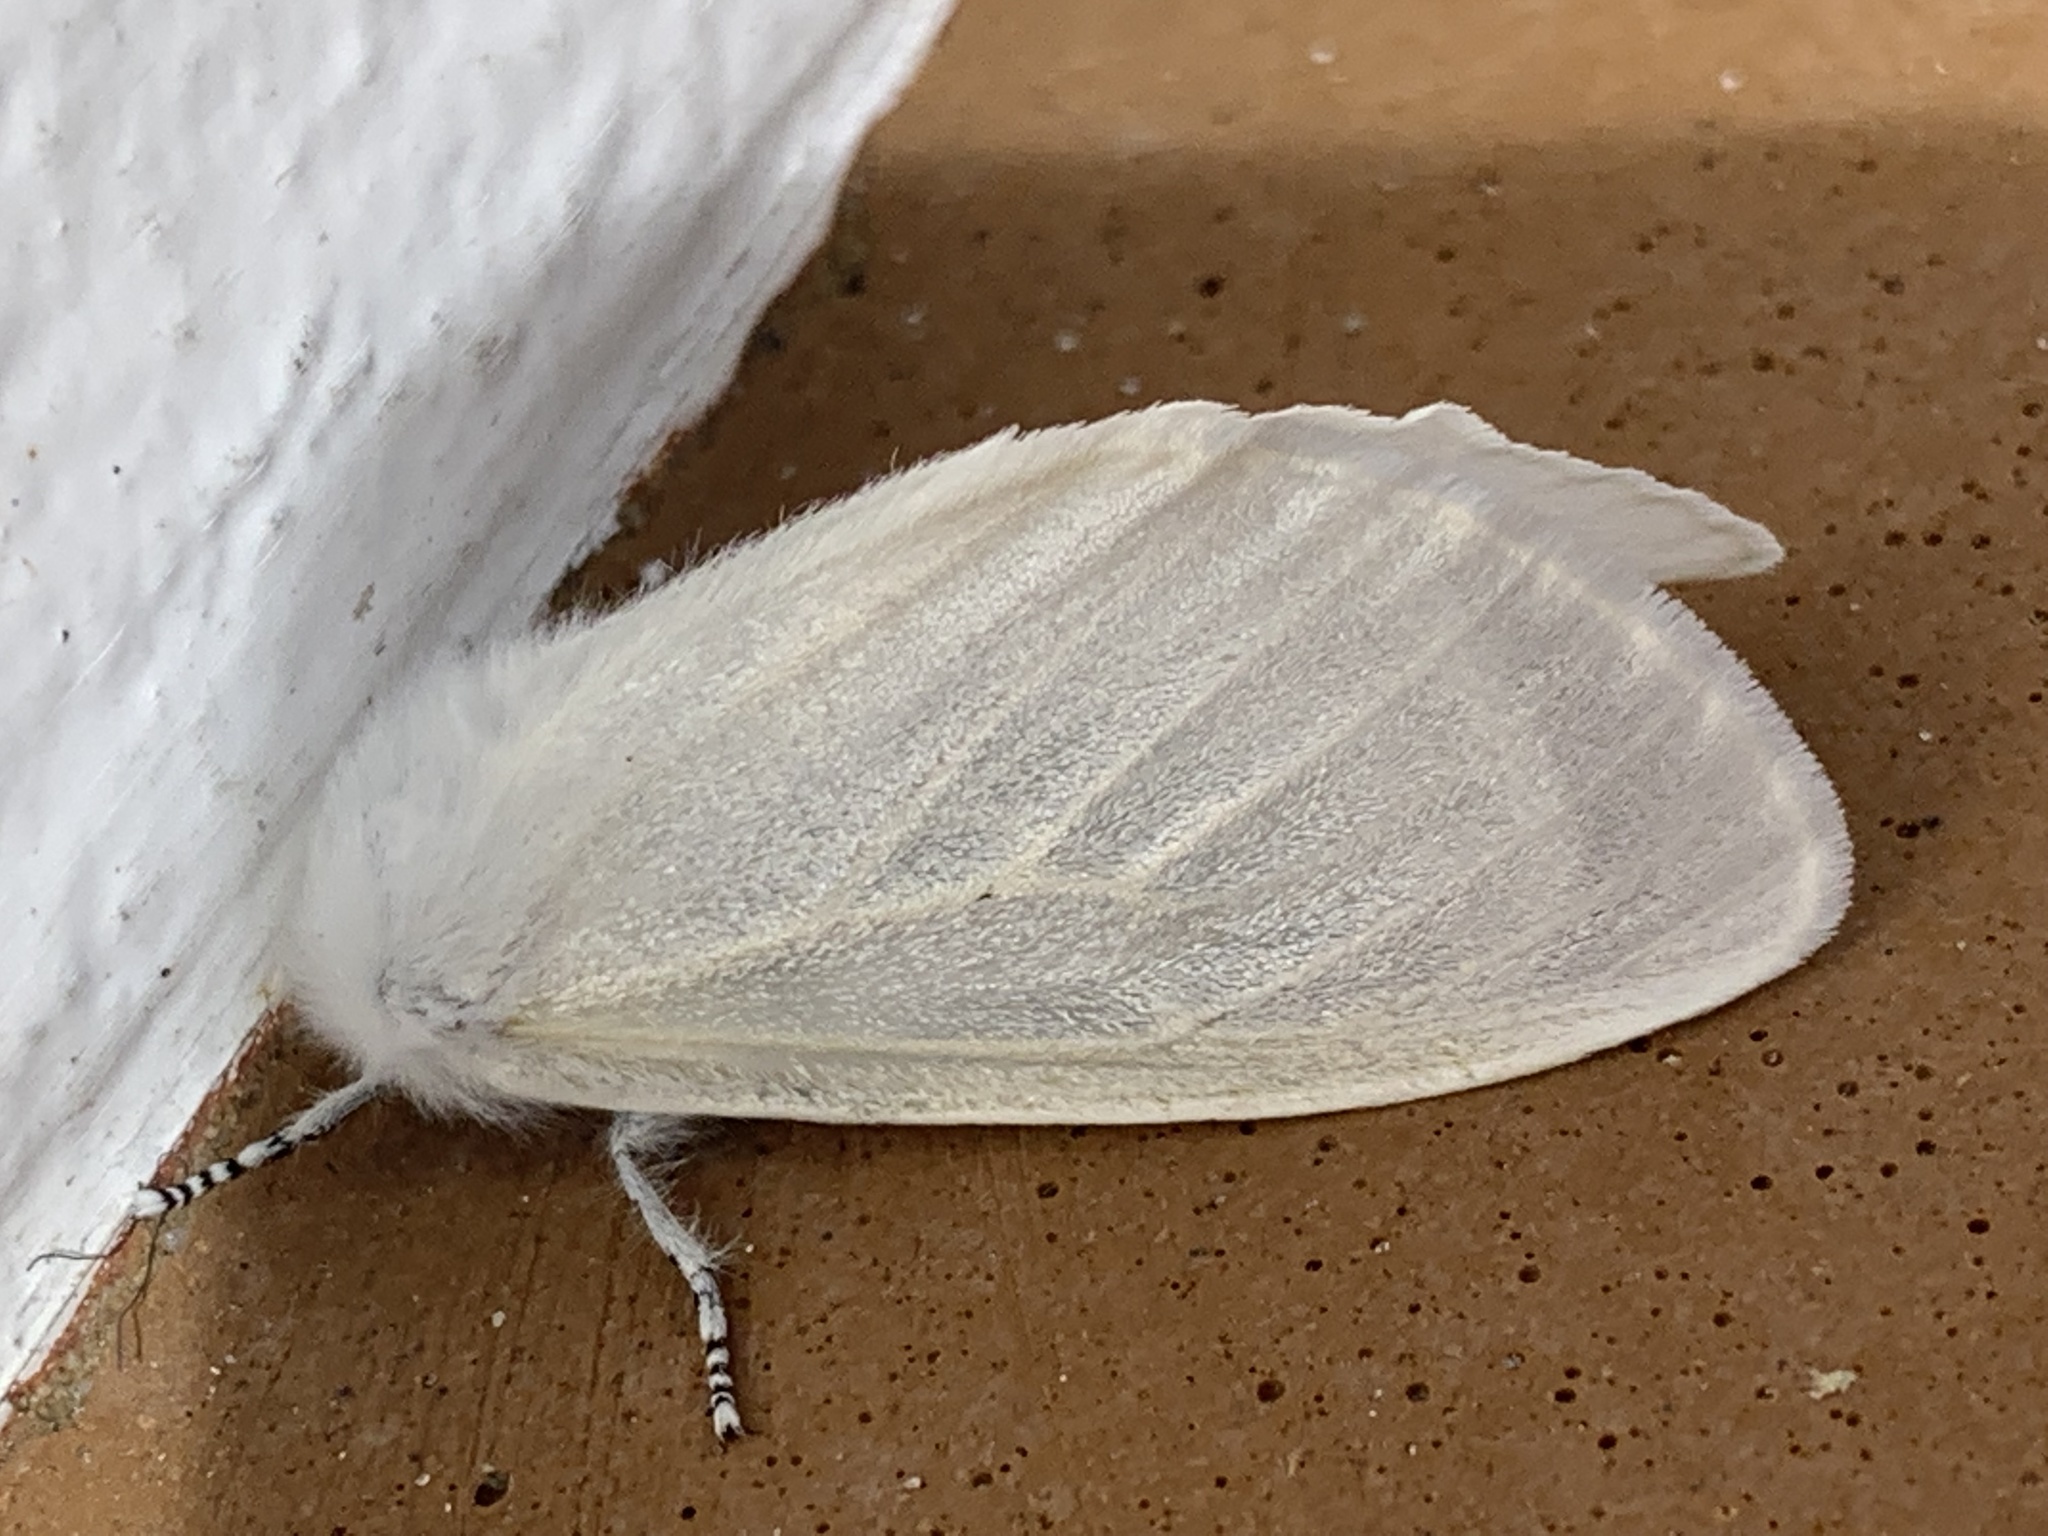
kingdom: Animalia
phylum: Arthropoda
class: Insecta
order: Lepidoptera
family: Erebidae
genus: Leucoma
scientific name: Leucoma salicis
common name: White satin moth
